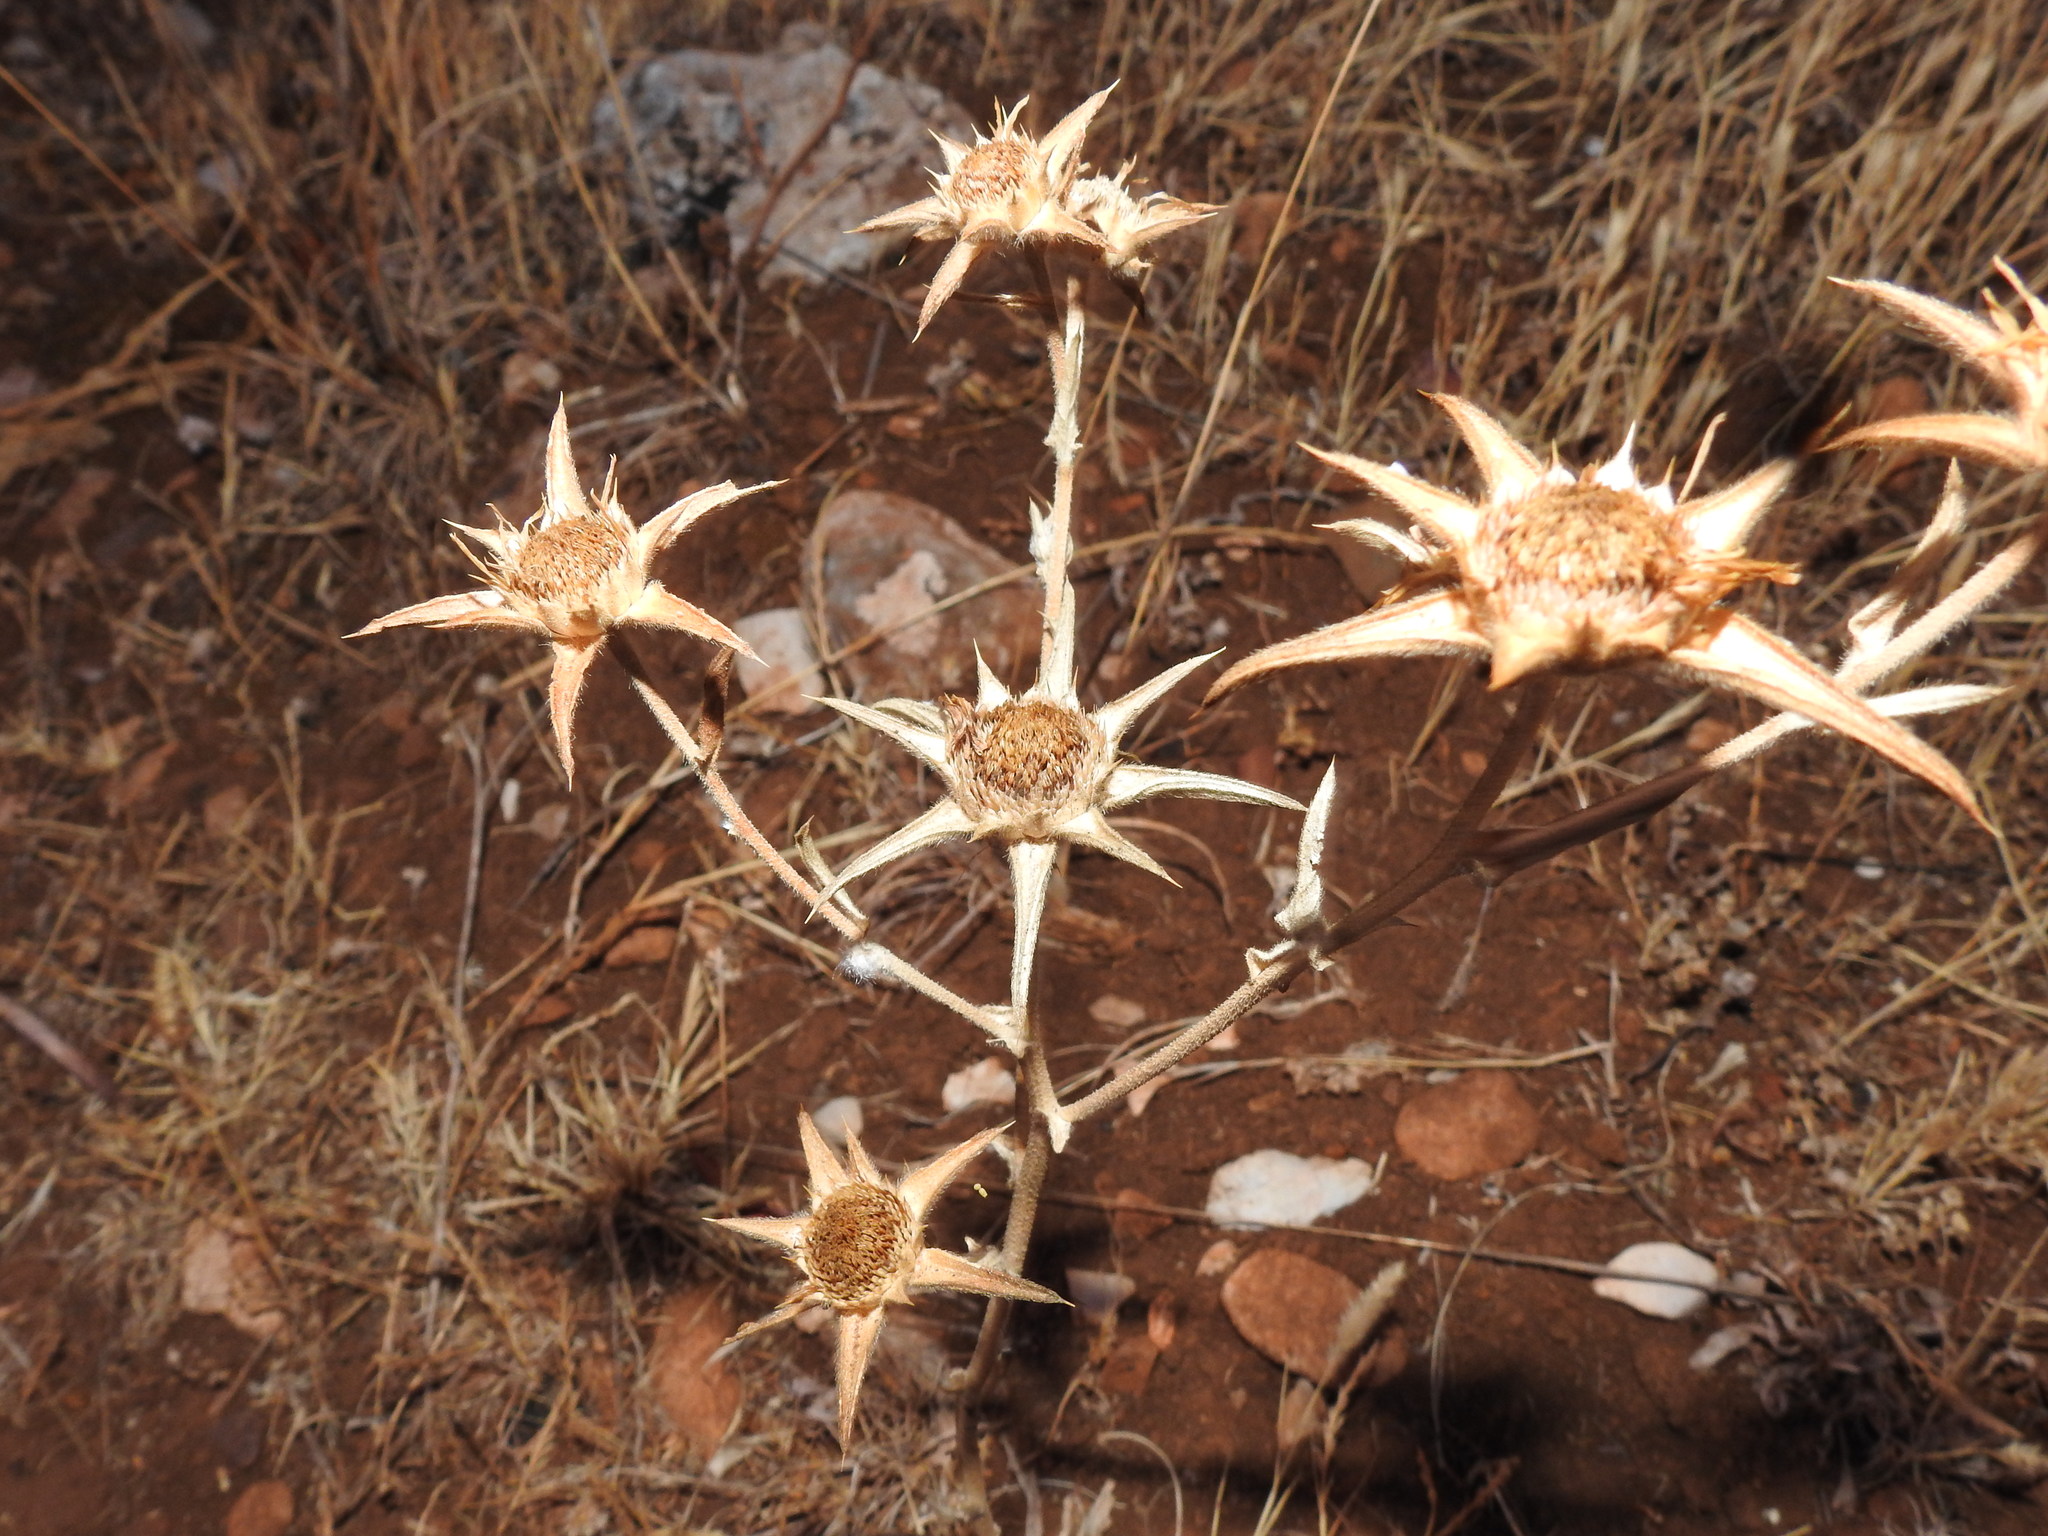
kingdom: Plantae
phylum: Tracheophyta
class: Magnoliopsida
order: Asterales
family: Asteraceae
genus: Pallenis
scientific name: Pallenis spinosa
